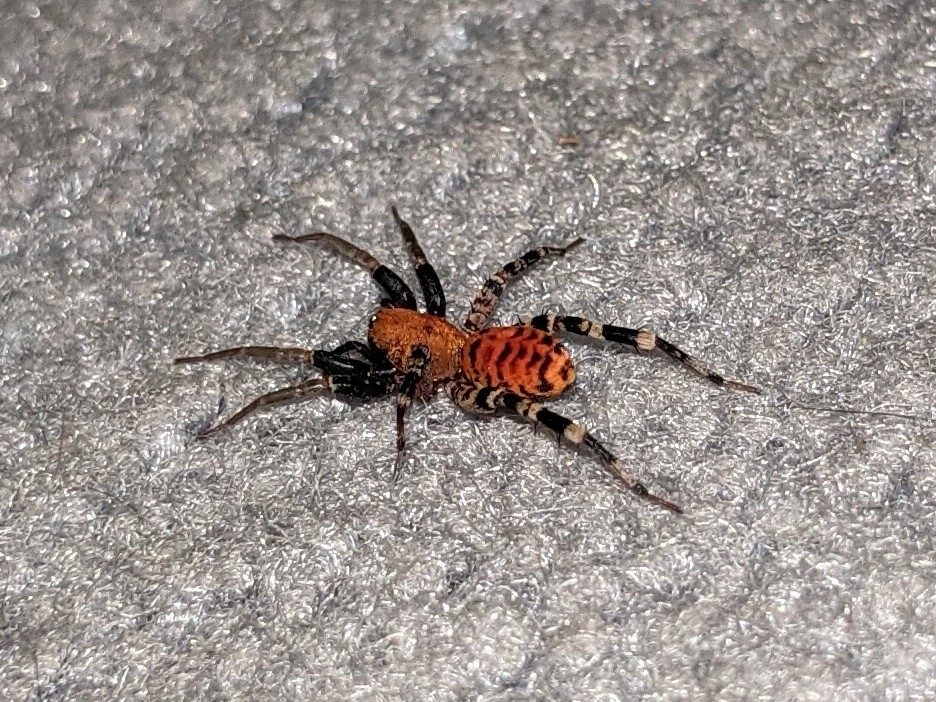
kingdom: Animalia
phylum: Arthropoda
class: Arachnida
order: Araneae
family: Corinnidae
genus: Castianeira
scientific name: Castianeira amoena
